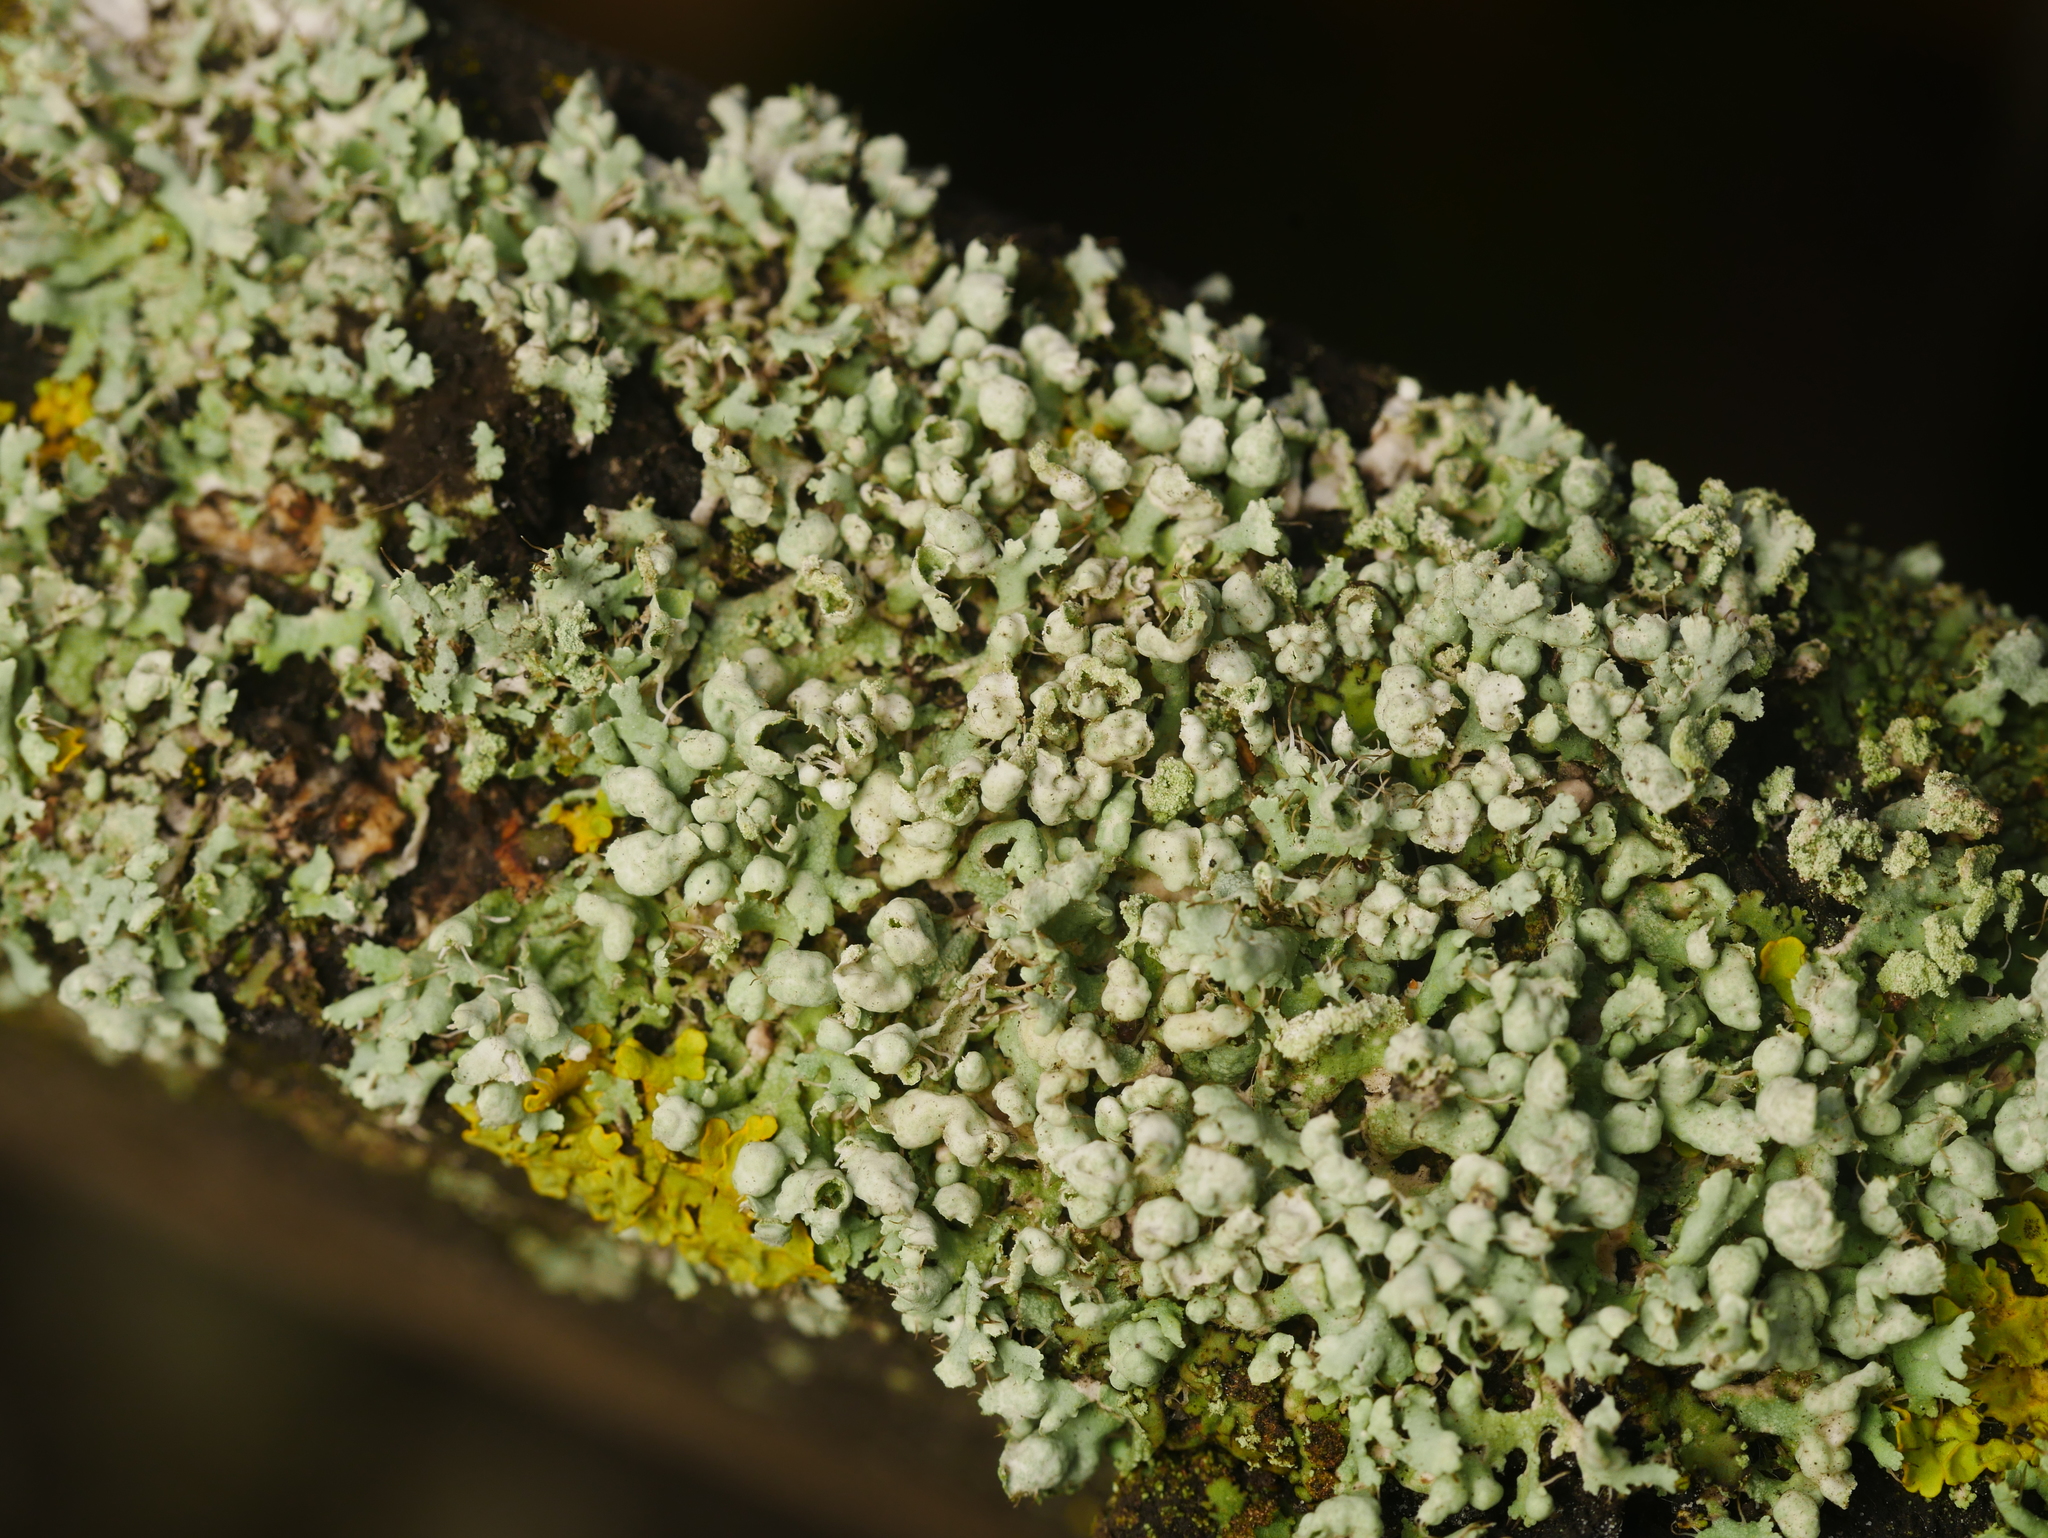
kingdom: Fungi
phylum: Ascomycota
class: Lecanoromycetes
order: Caliciales
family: Physciaceae
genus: Physcia
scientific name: Physcia adscendens
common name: Hooded rosette lichen
